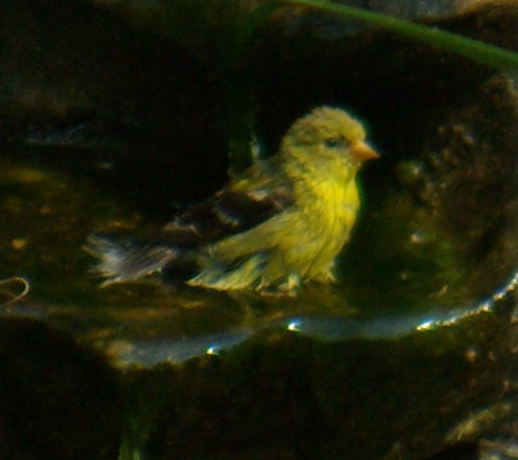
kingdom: Animalia
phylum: Chordata
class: Aves
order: Passeriformes
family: Fringillidae
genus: Spinus
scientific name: Spinus tristis
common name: American goldfinch
